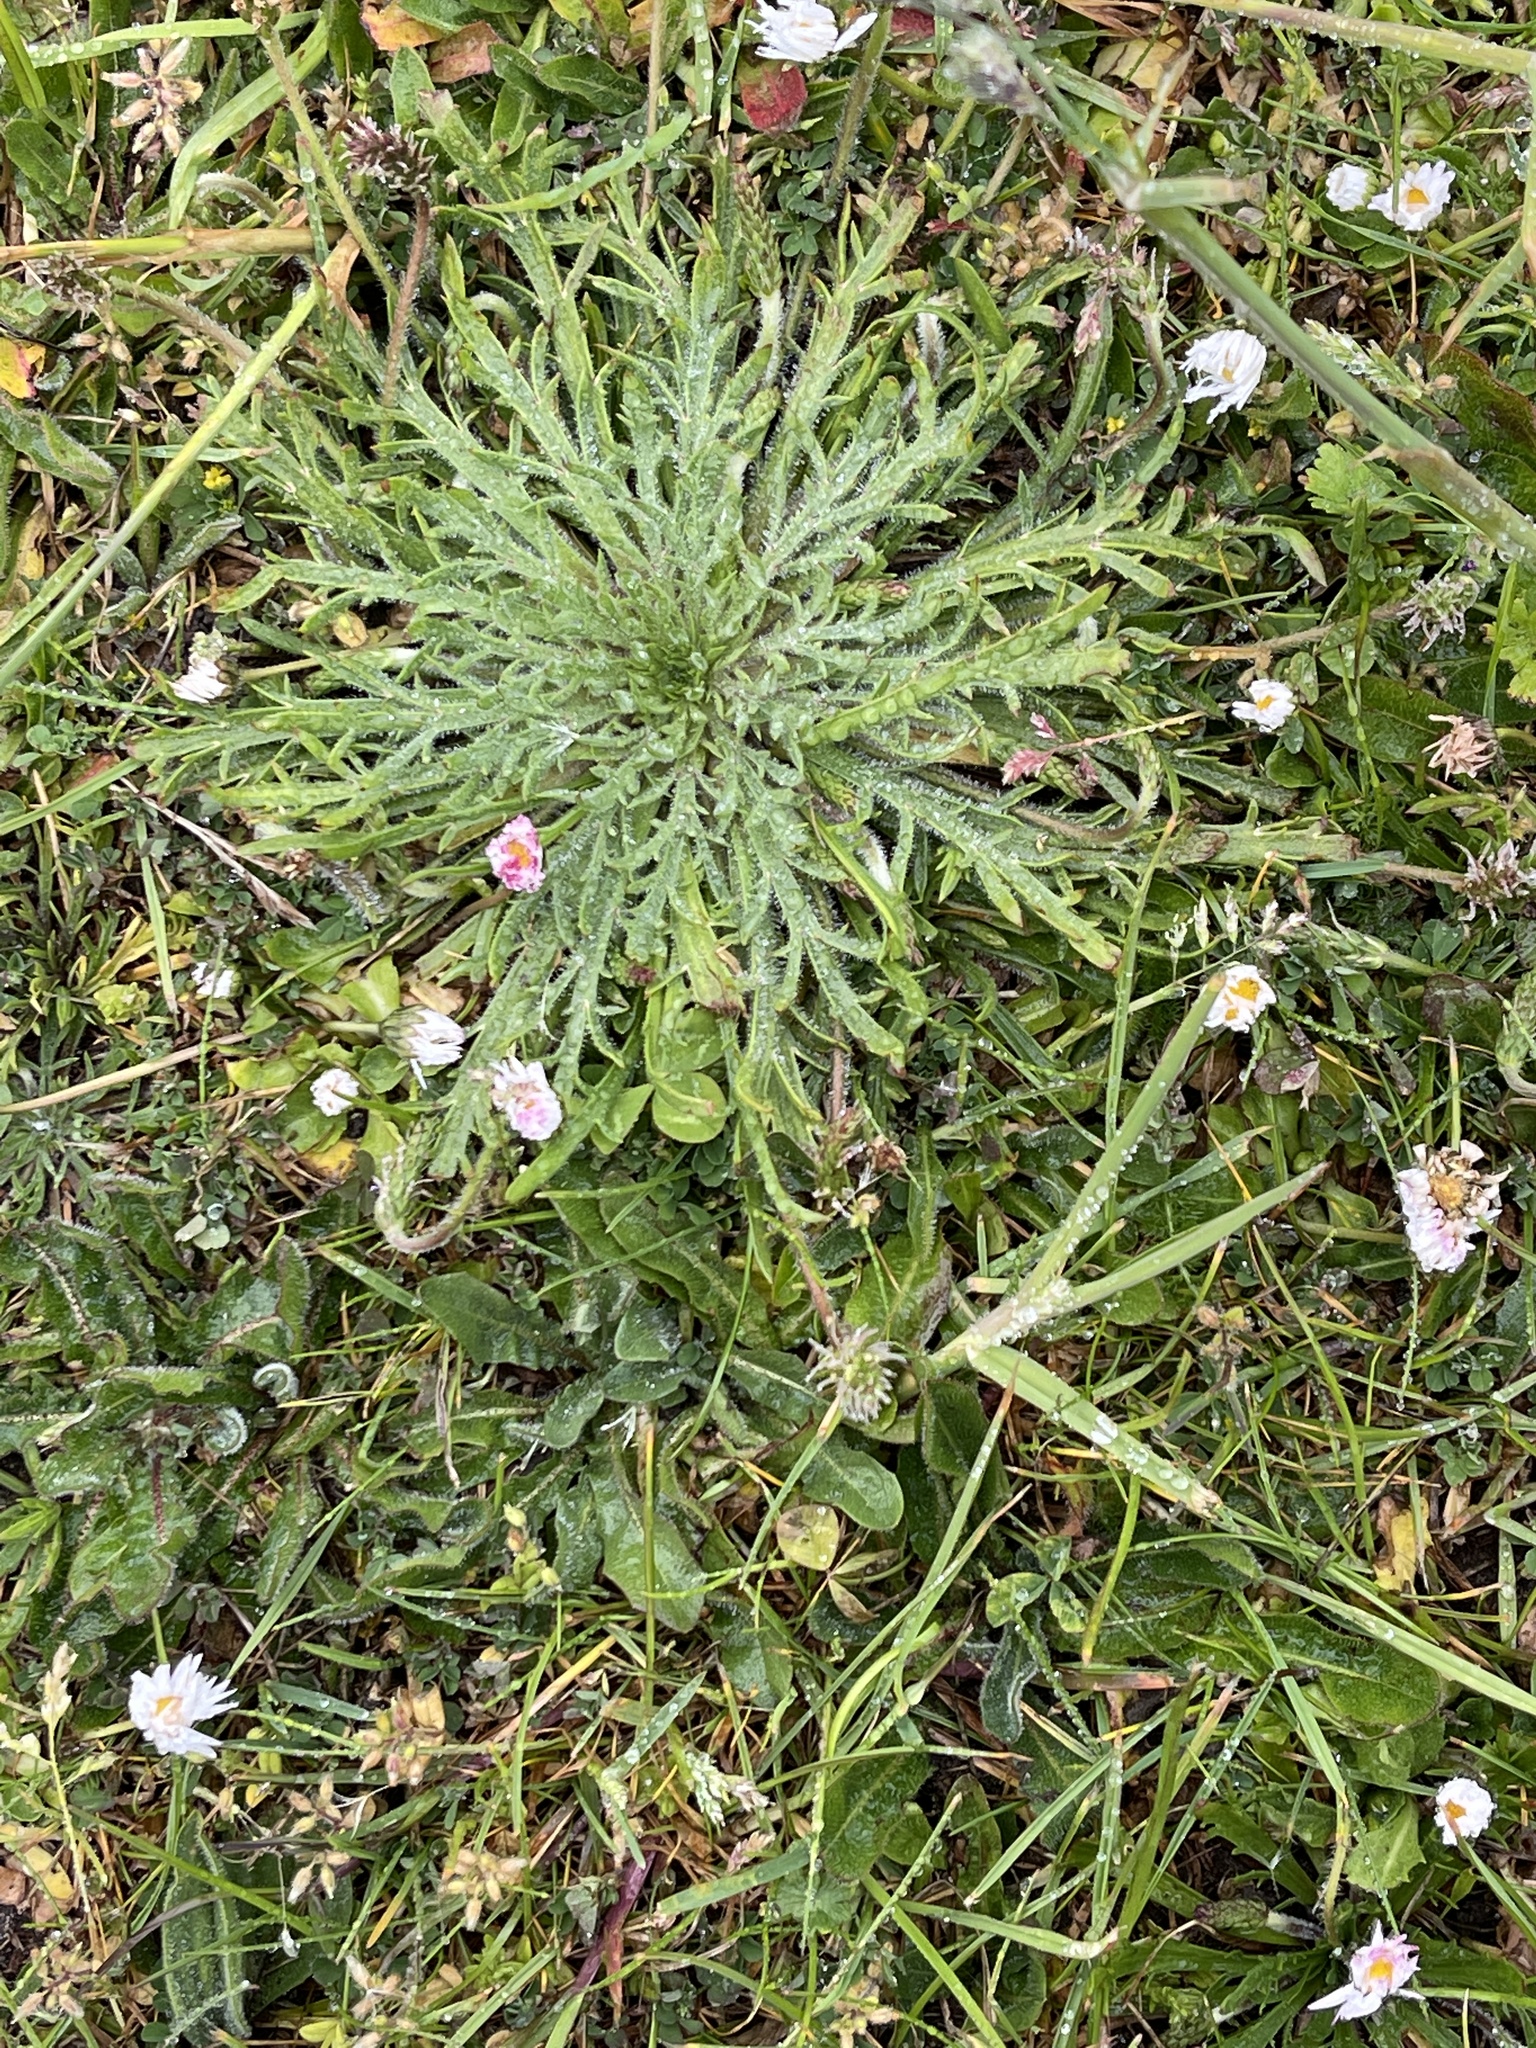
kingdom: Plantae
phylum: Tracheophyta
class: Magnoliopsida
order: Lamiales
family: Plantaginaceae
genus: Plantago
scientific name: Plantago coronopus
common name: Buck's-horn plantain
